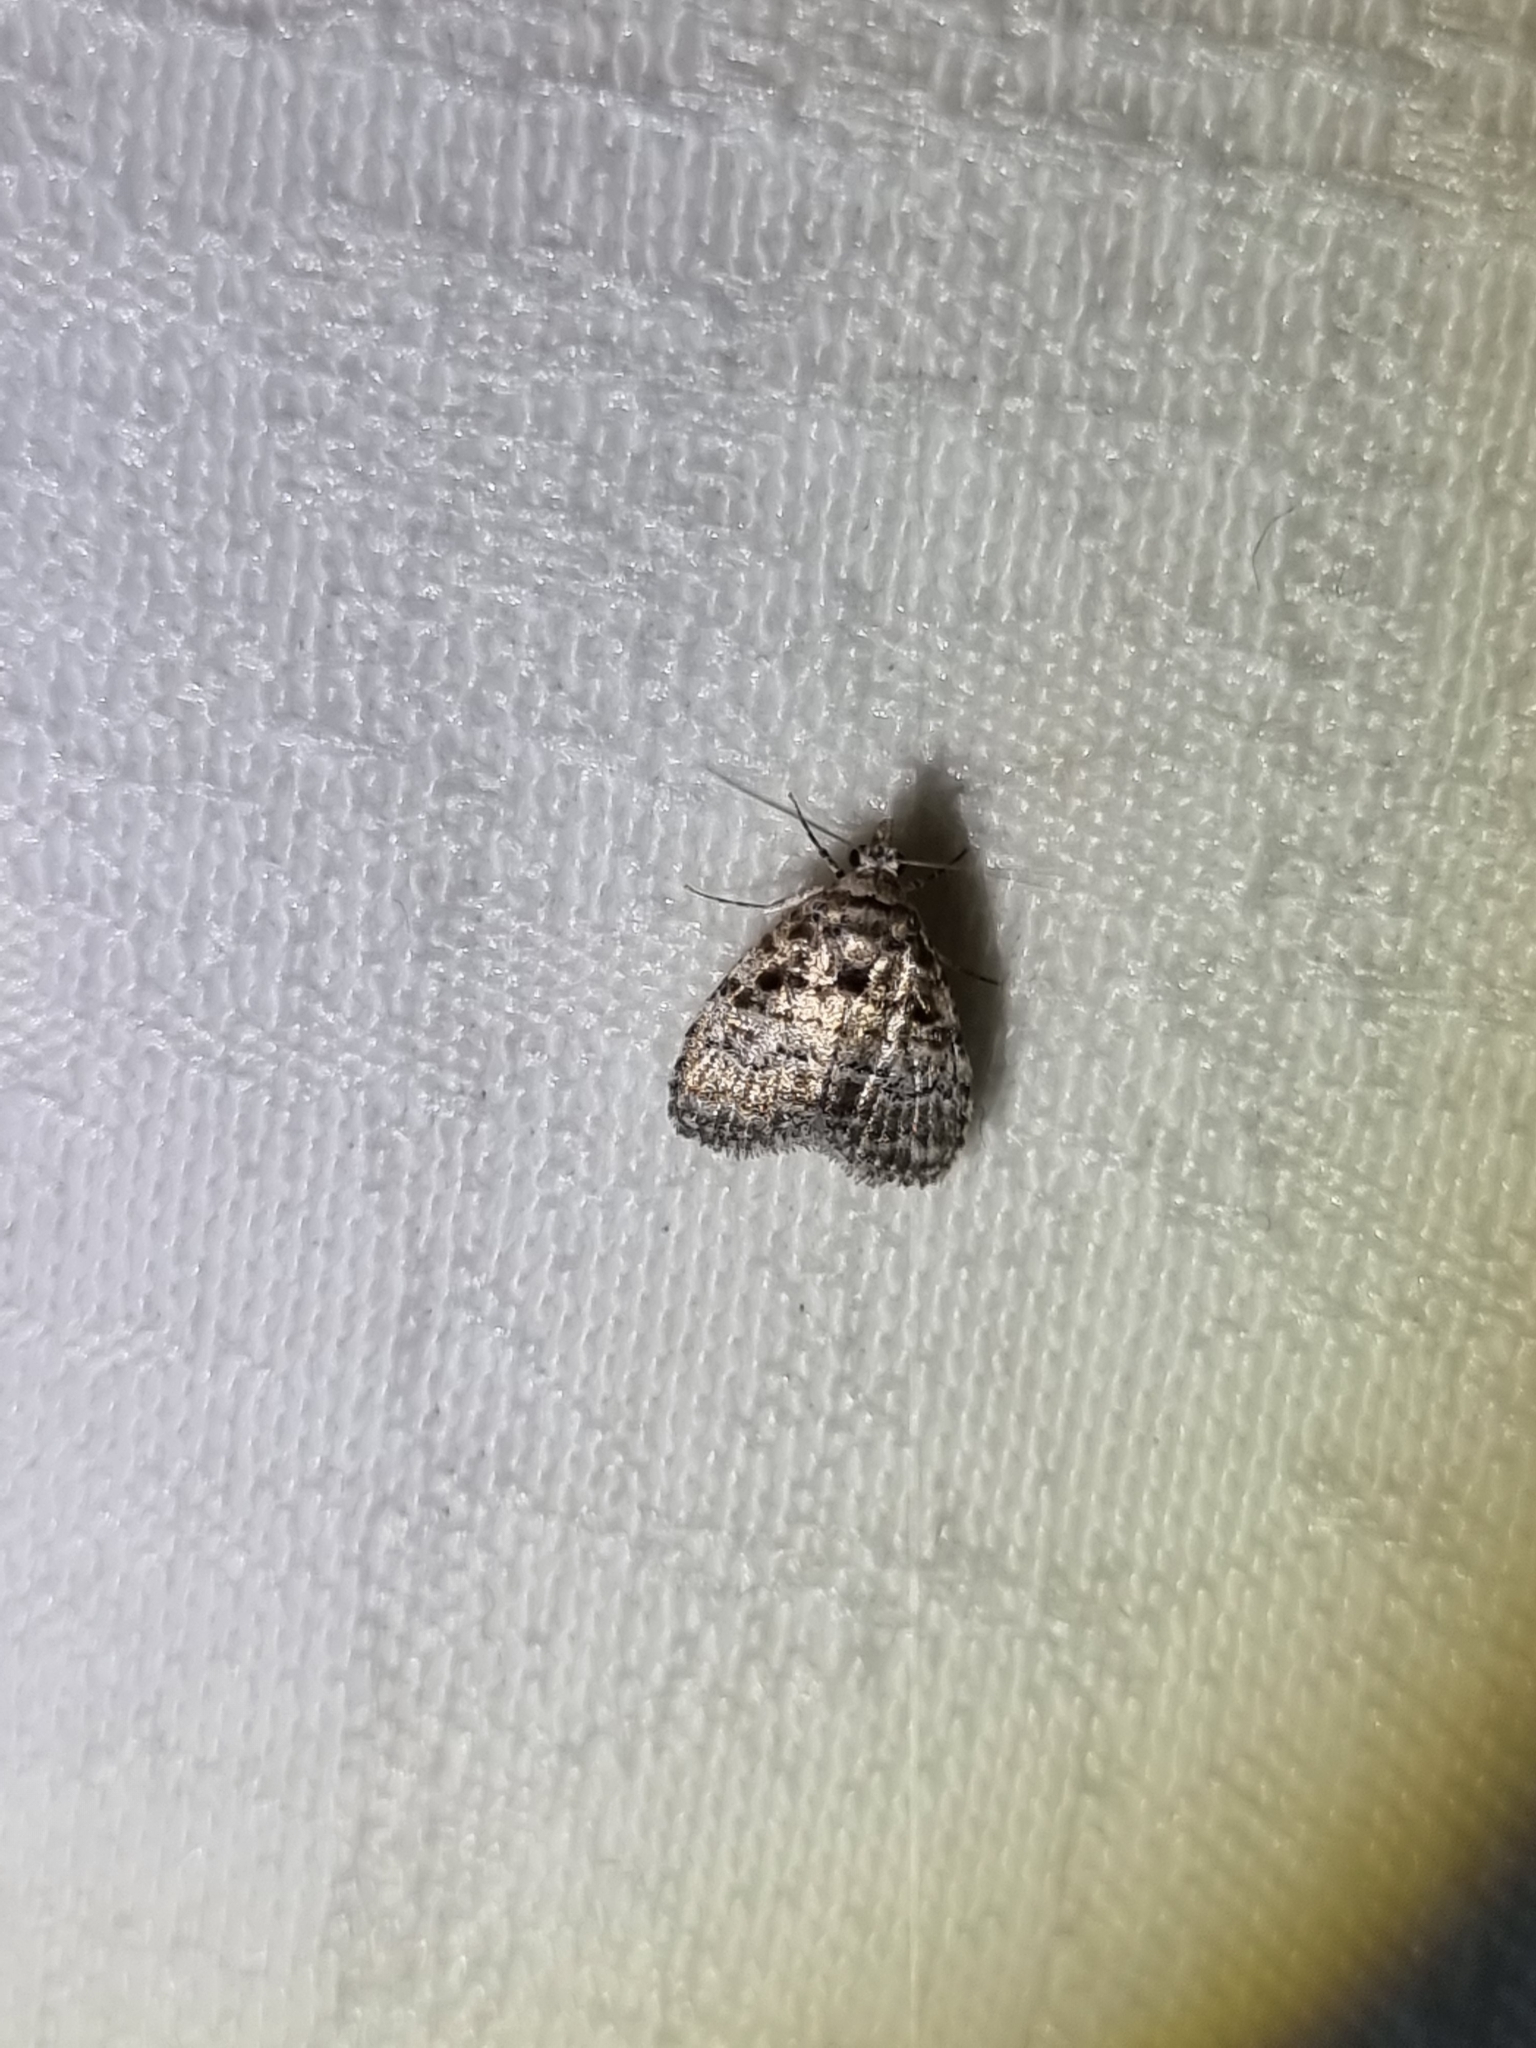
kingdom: Animalia
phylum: Arthropoda
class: Insecta
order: Lepidoptera
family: Nolidae
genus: Nola
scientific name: Nola Pisara hyalospila
